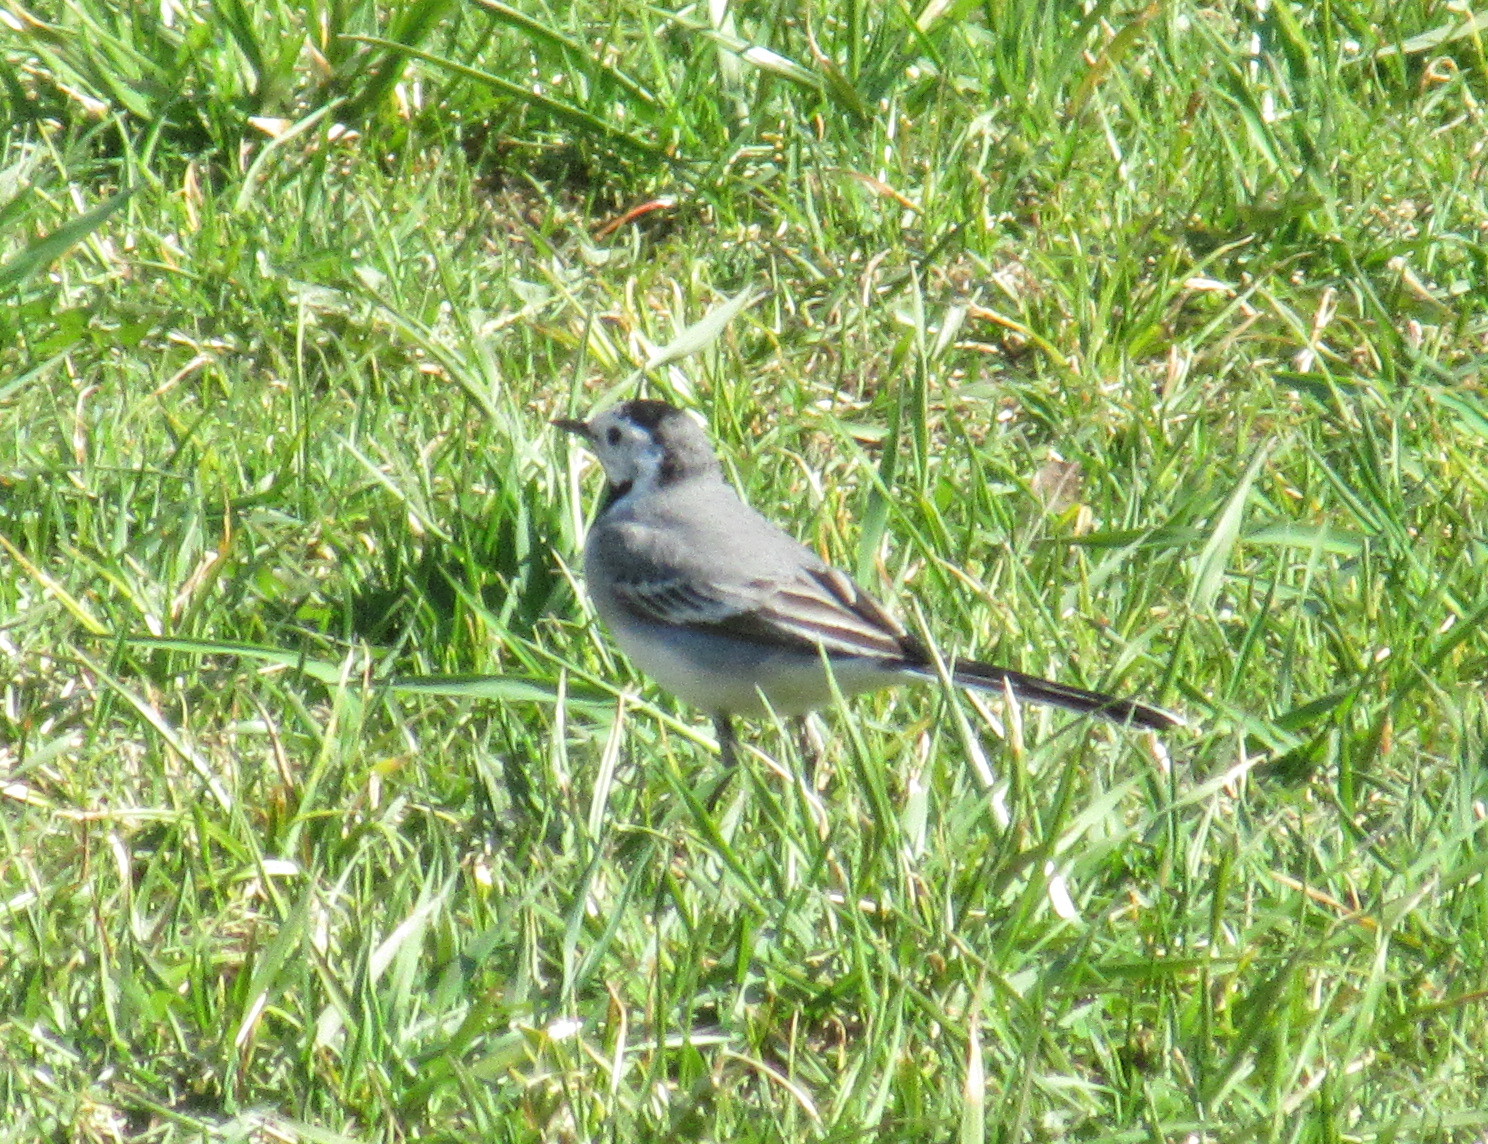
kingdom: Animalia
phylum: Chordata
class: Aves
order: Passeriformes
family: Motacillidae
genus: Motacilla
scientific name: Motacilla alba
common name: White wagtail
